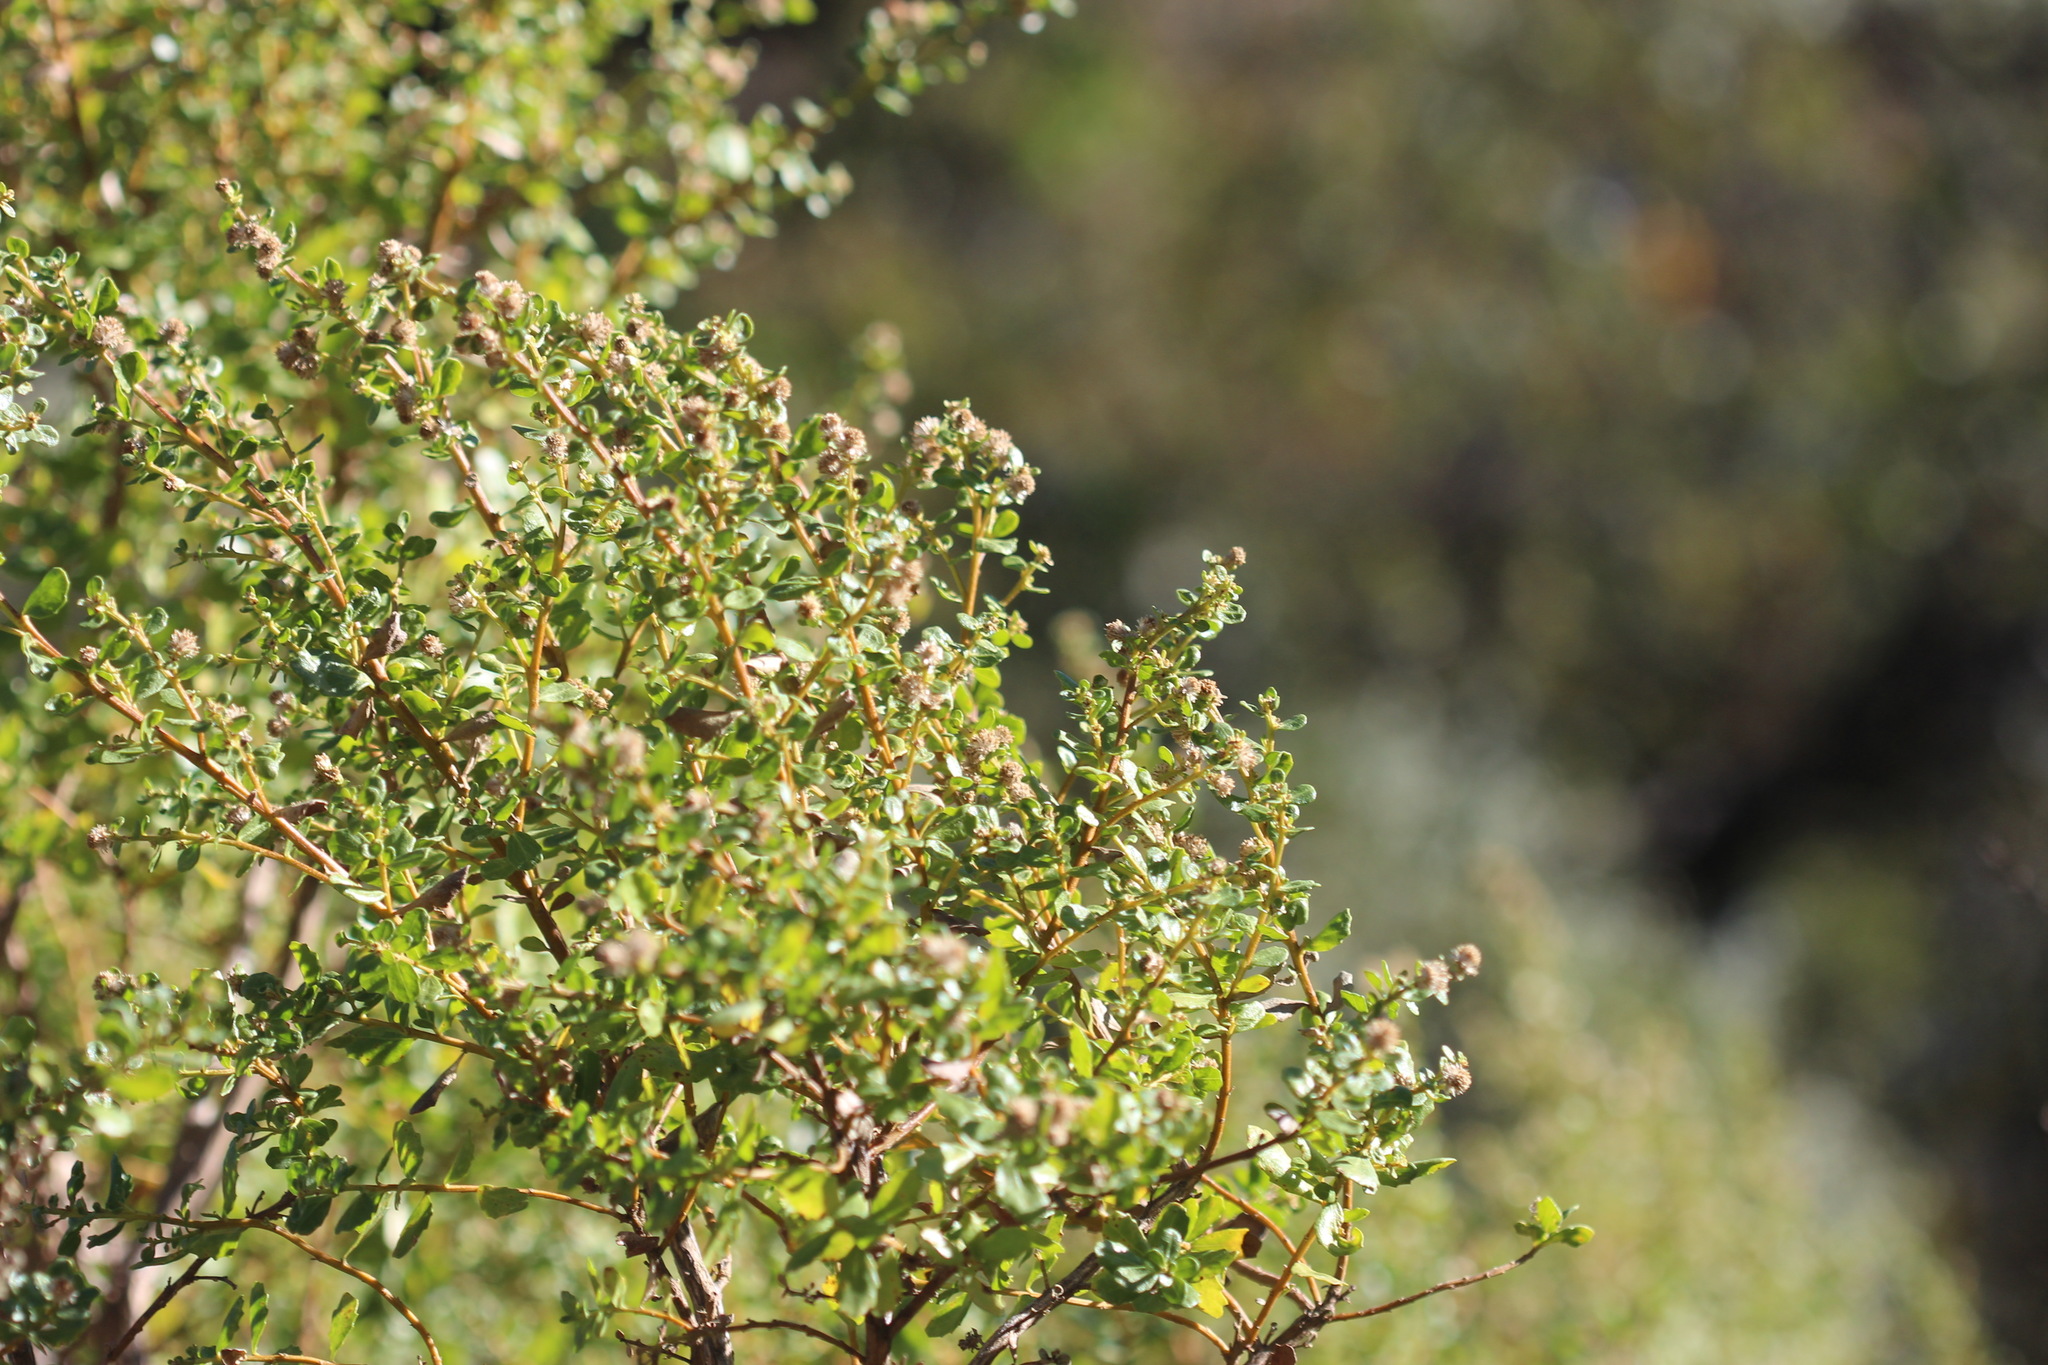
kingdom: Plantae
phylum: Tracheophyta
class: Magnoliopsida
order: Asterales
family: Asteraceae
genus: Baccharis
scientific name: Baccharis pilularis
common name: Coyotebrush
